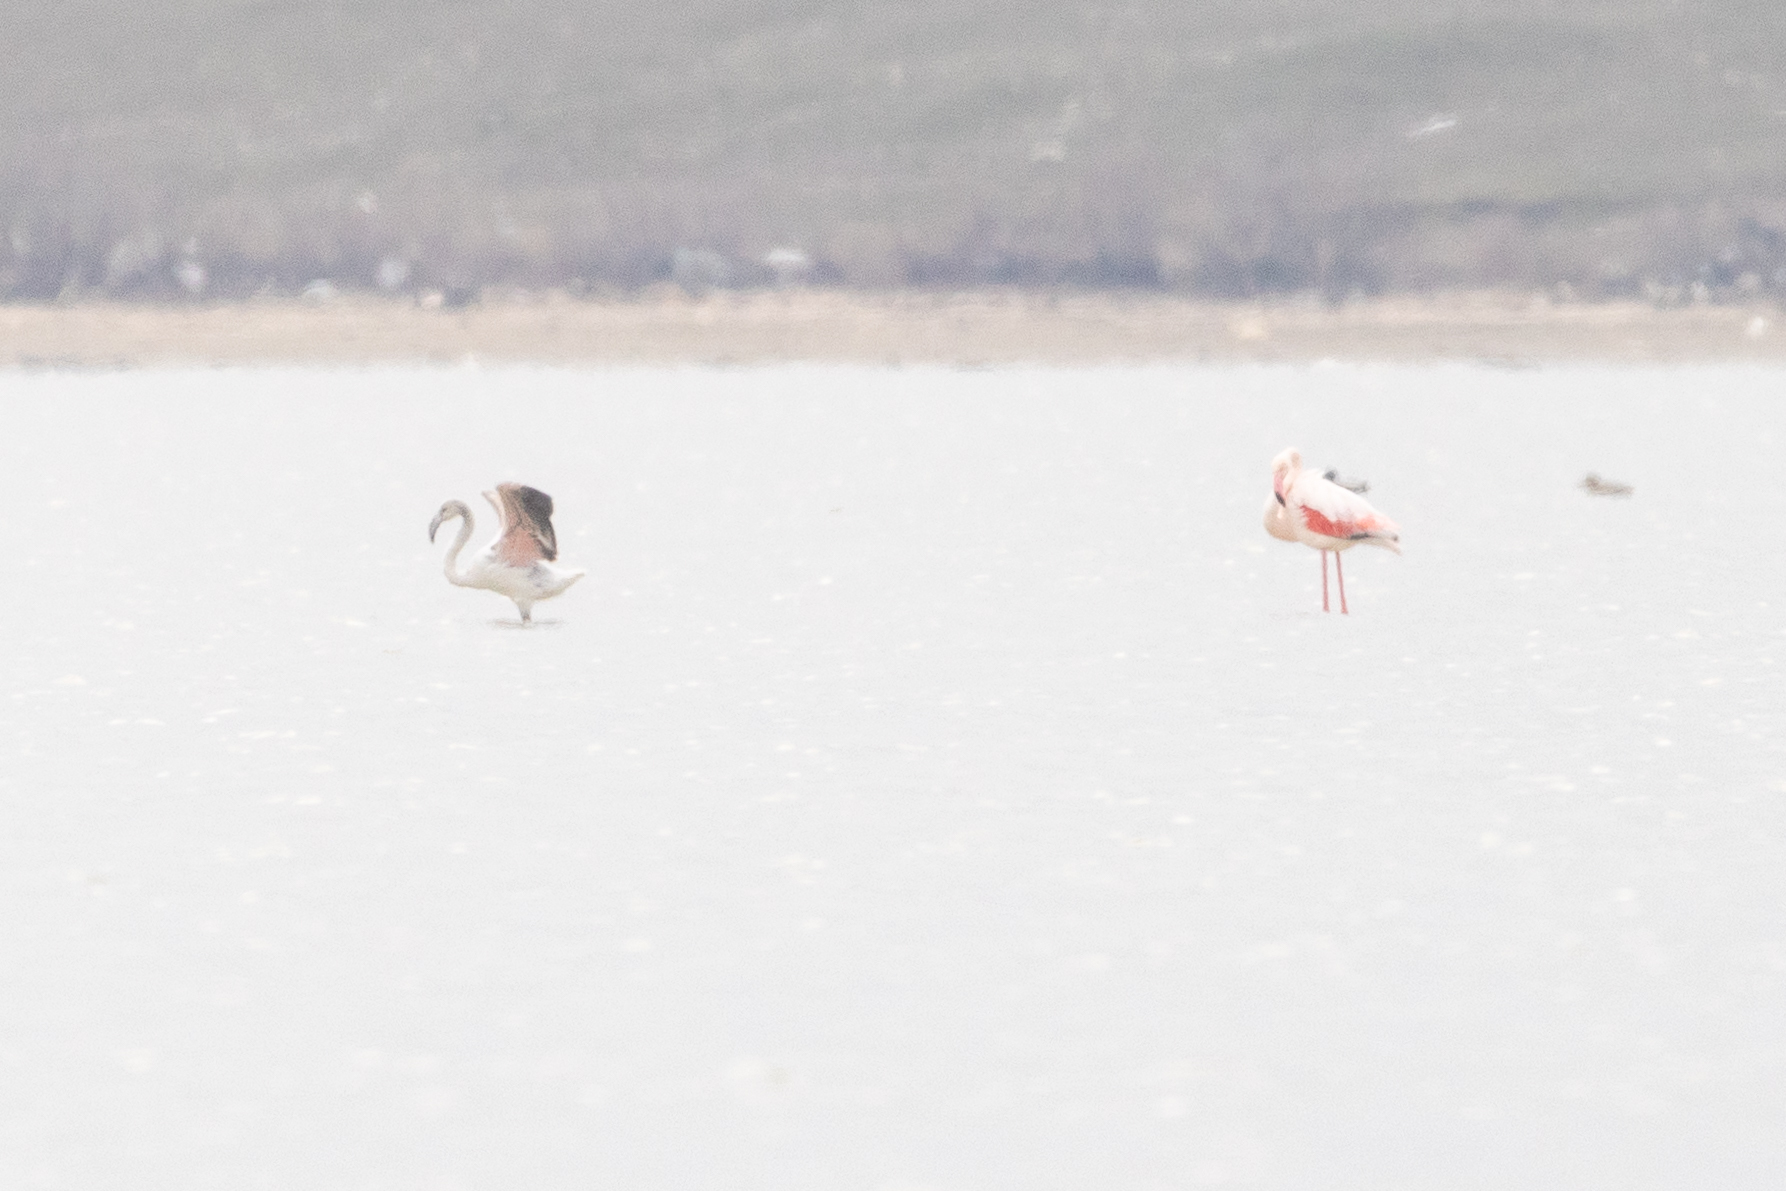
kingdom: Animalia
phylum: Chordata
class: Aves
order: Phoenicopteriformes
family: Phoenicopteridae
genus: Phoenicopterus
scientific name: Phoenicopterus roseus
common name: Greater flamingo
